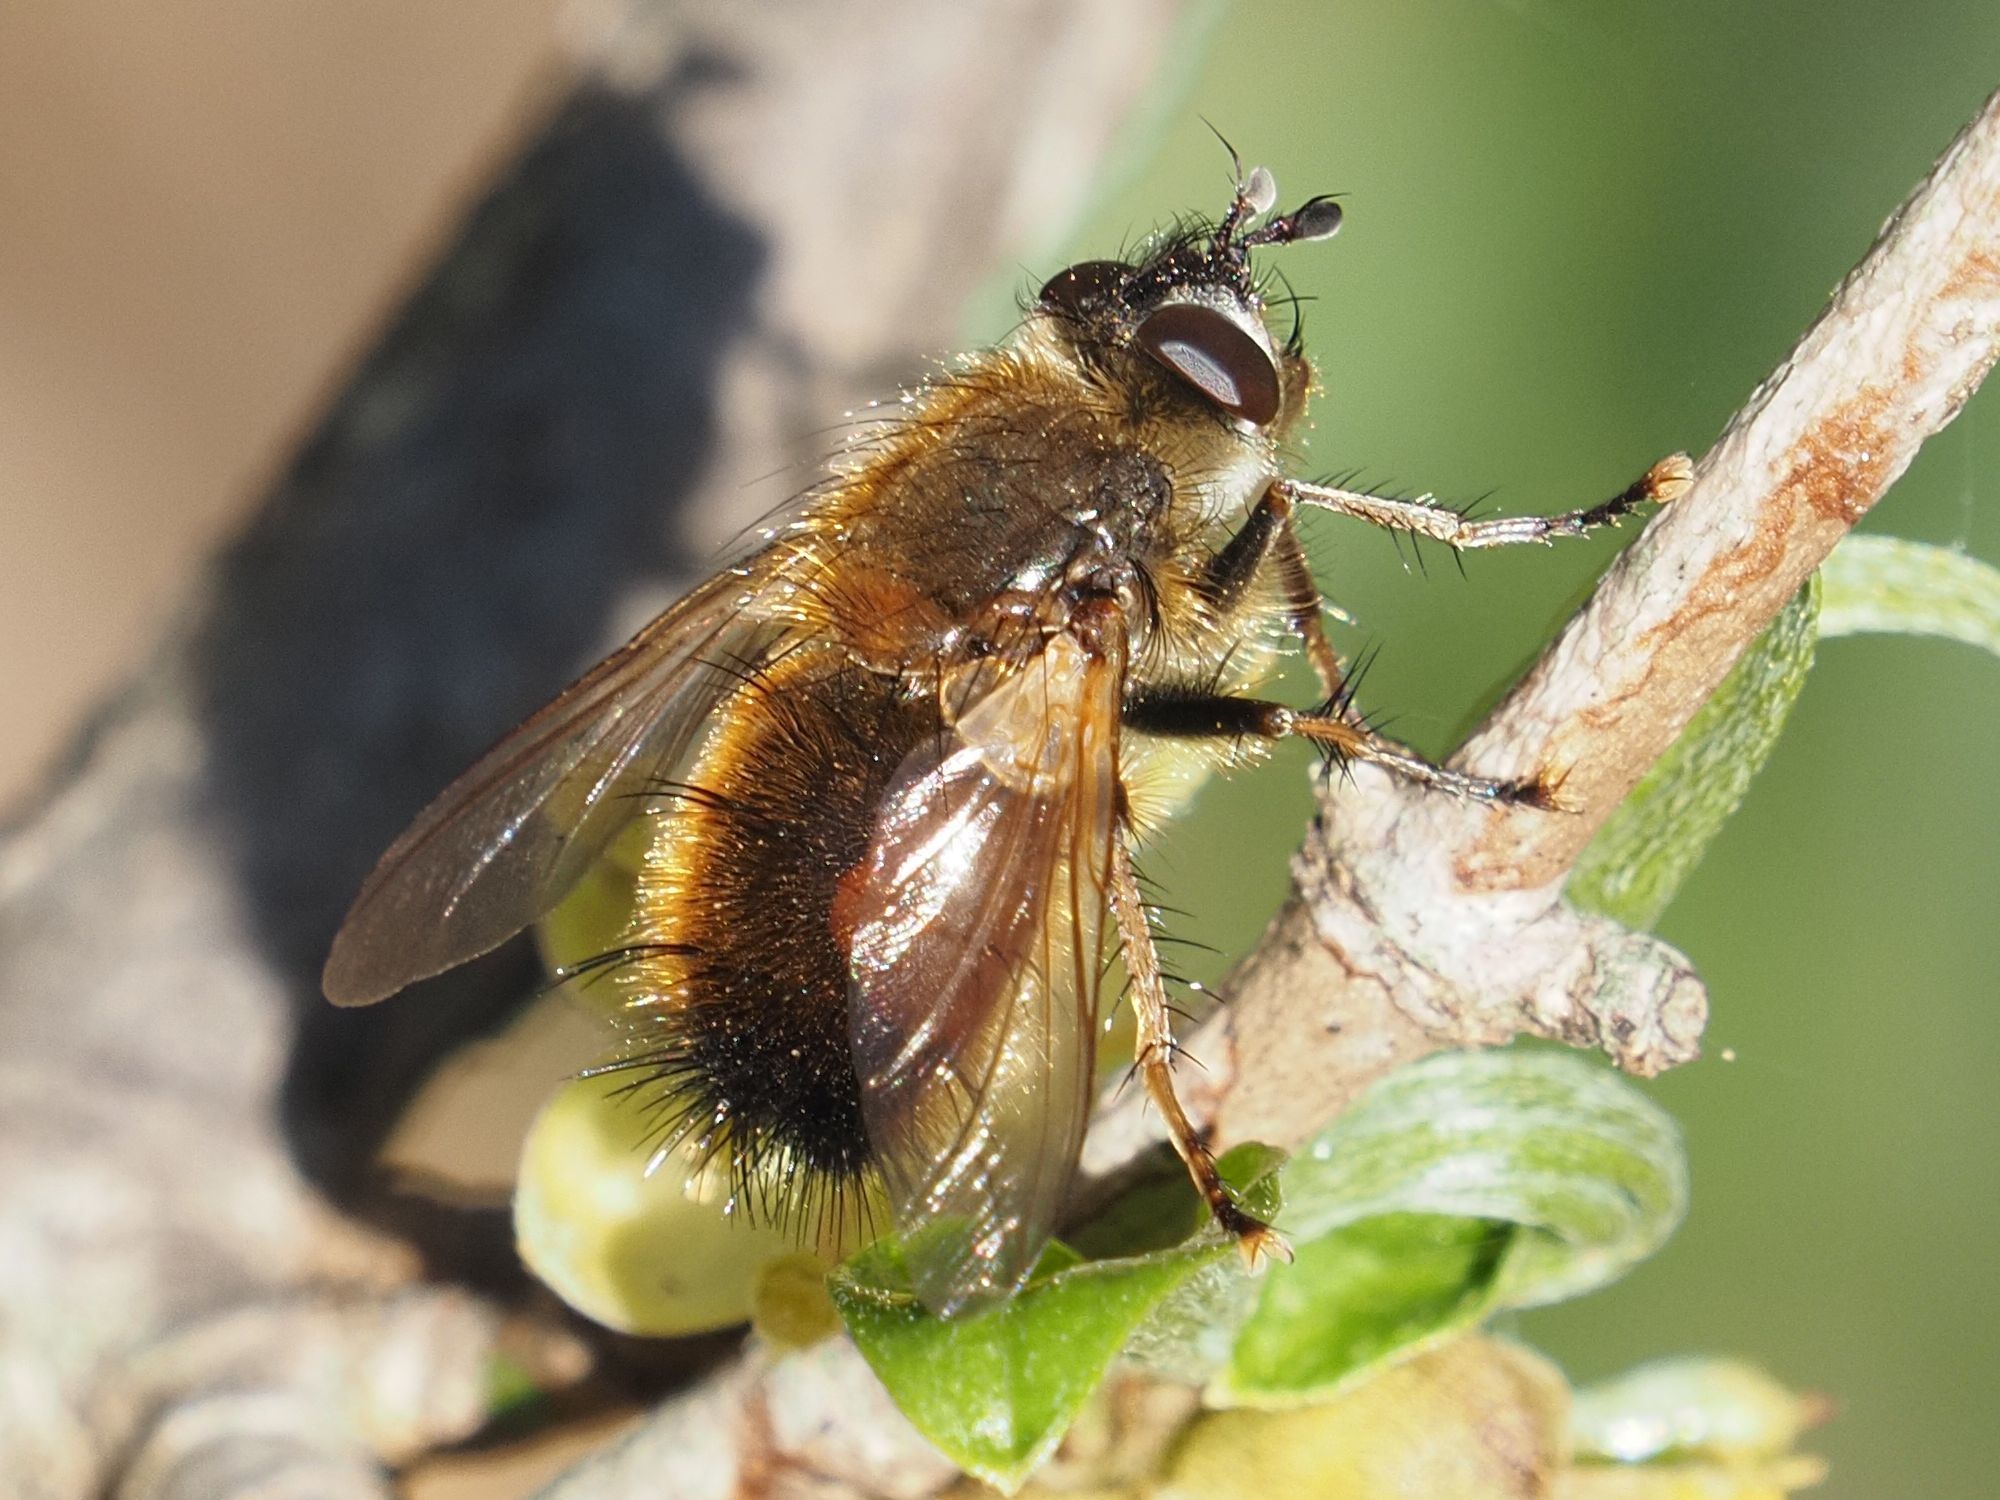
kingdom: Animalia
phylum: Arthropoda
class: Insecta
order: Diptera
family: Tachinidae
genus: Tachina
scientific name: Tachina lurida
